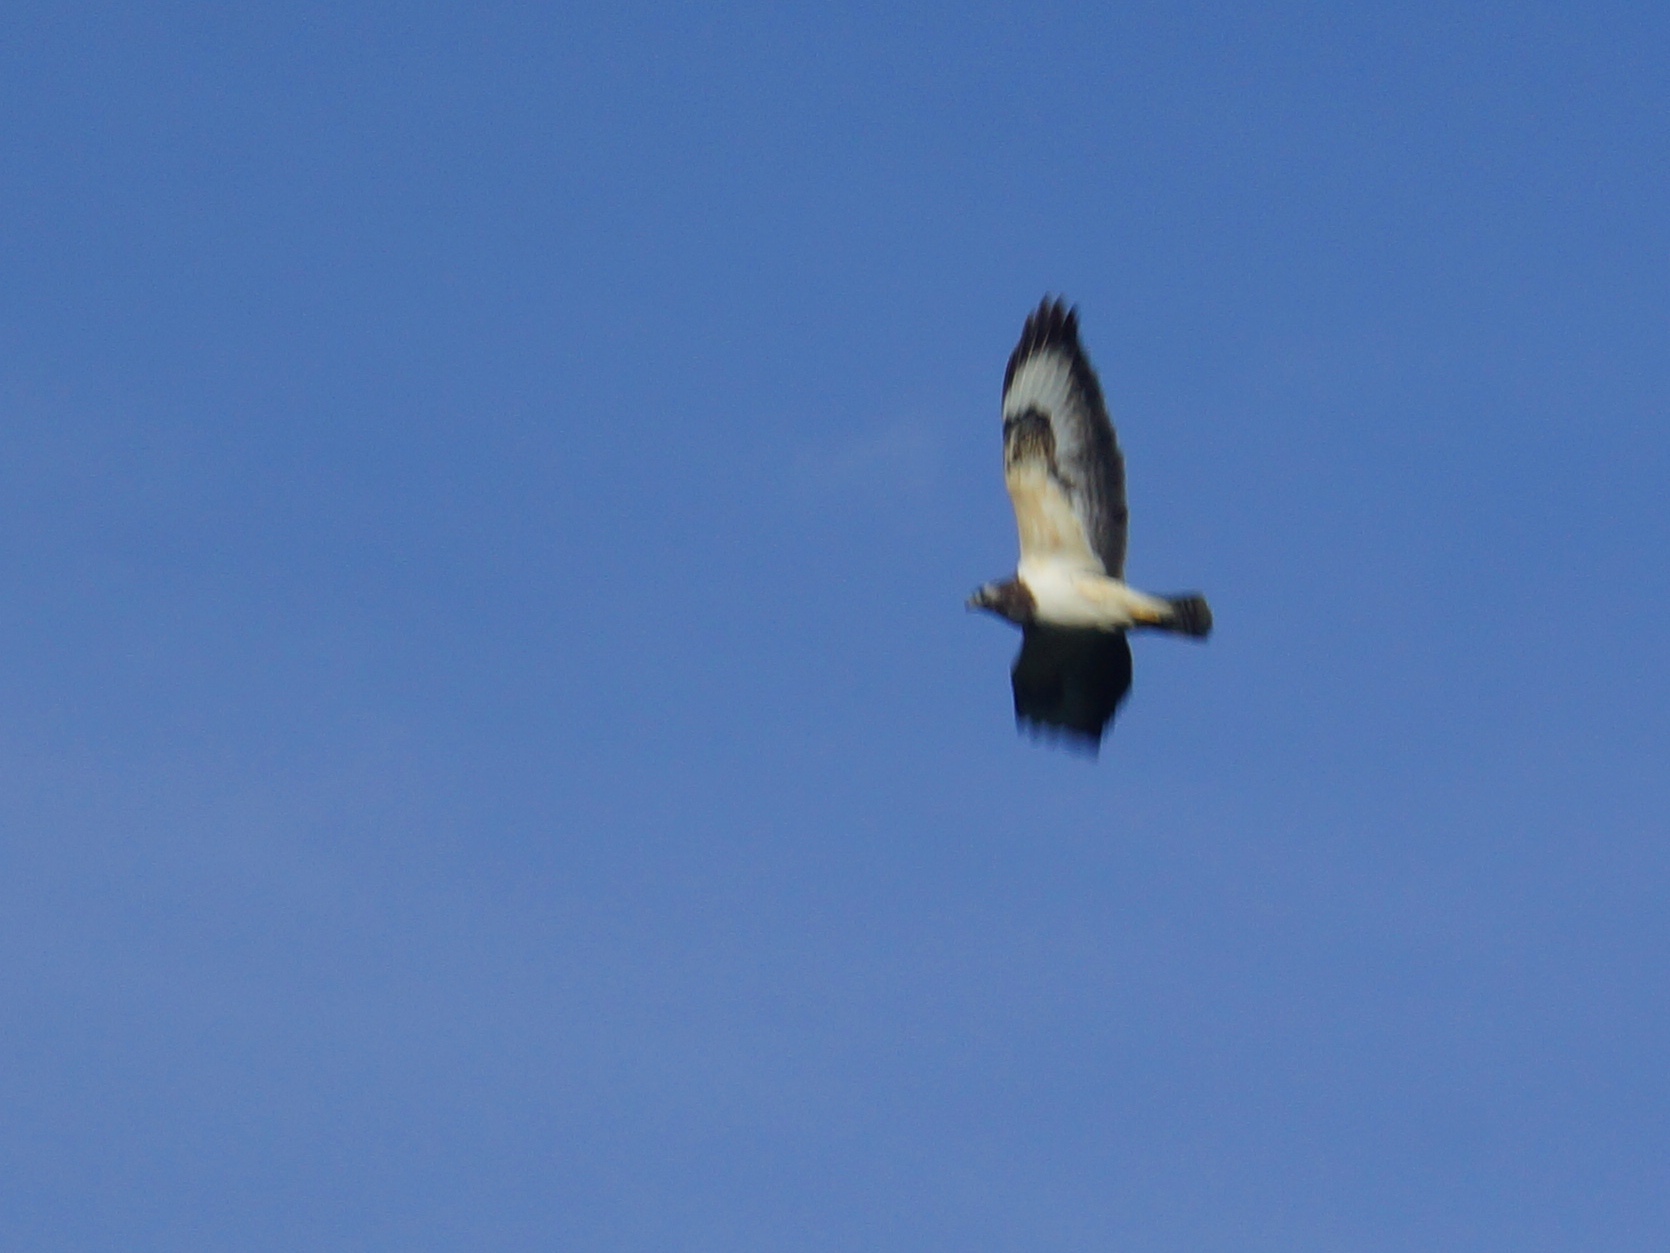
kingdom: Animalia
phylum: Chordata
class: Aves
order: Accipitriformes
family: Accipitridae
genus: Buteo
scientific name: Buteo buteo
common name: Common buzzard
